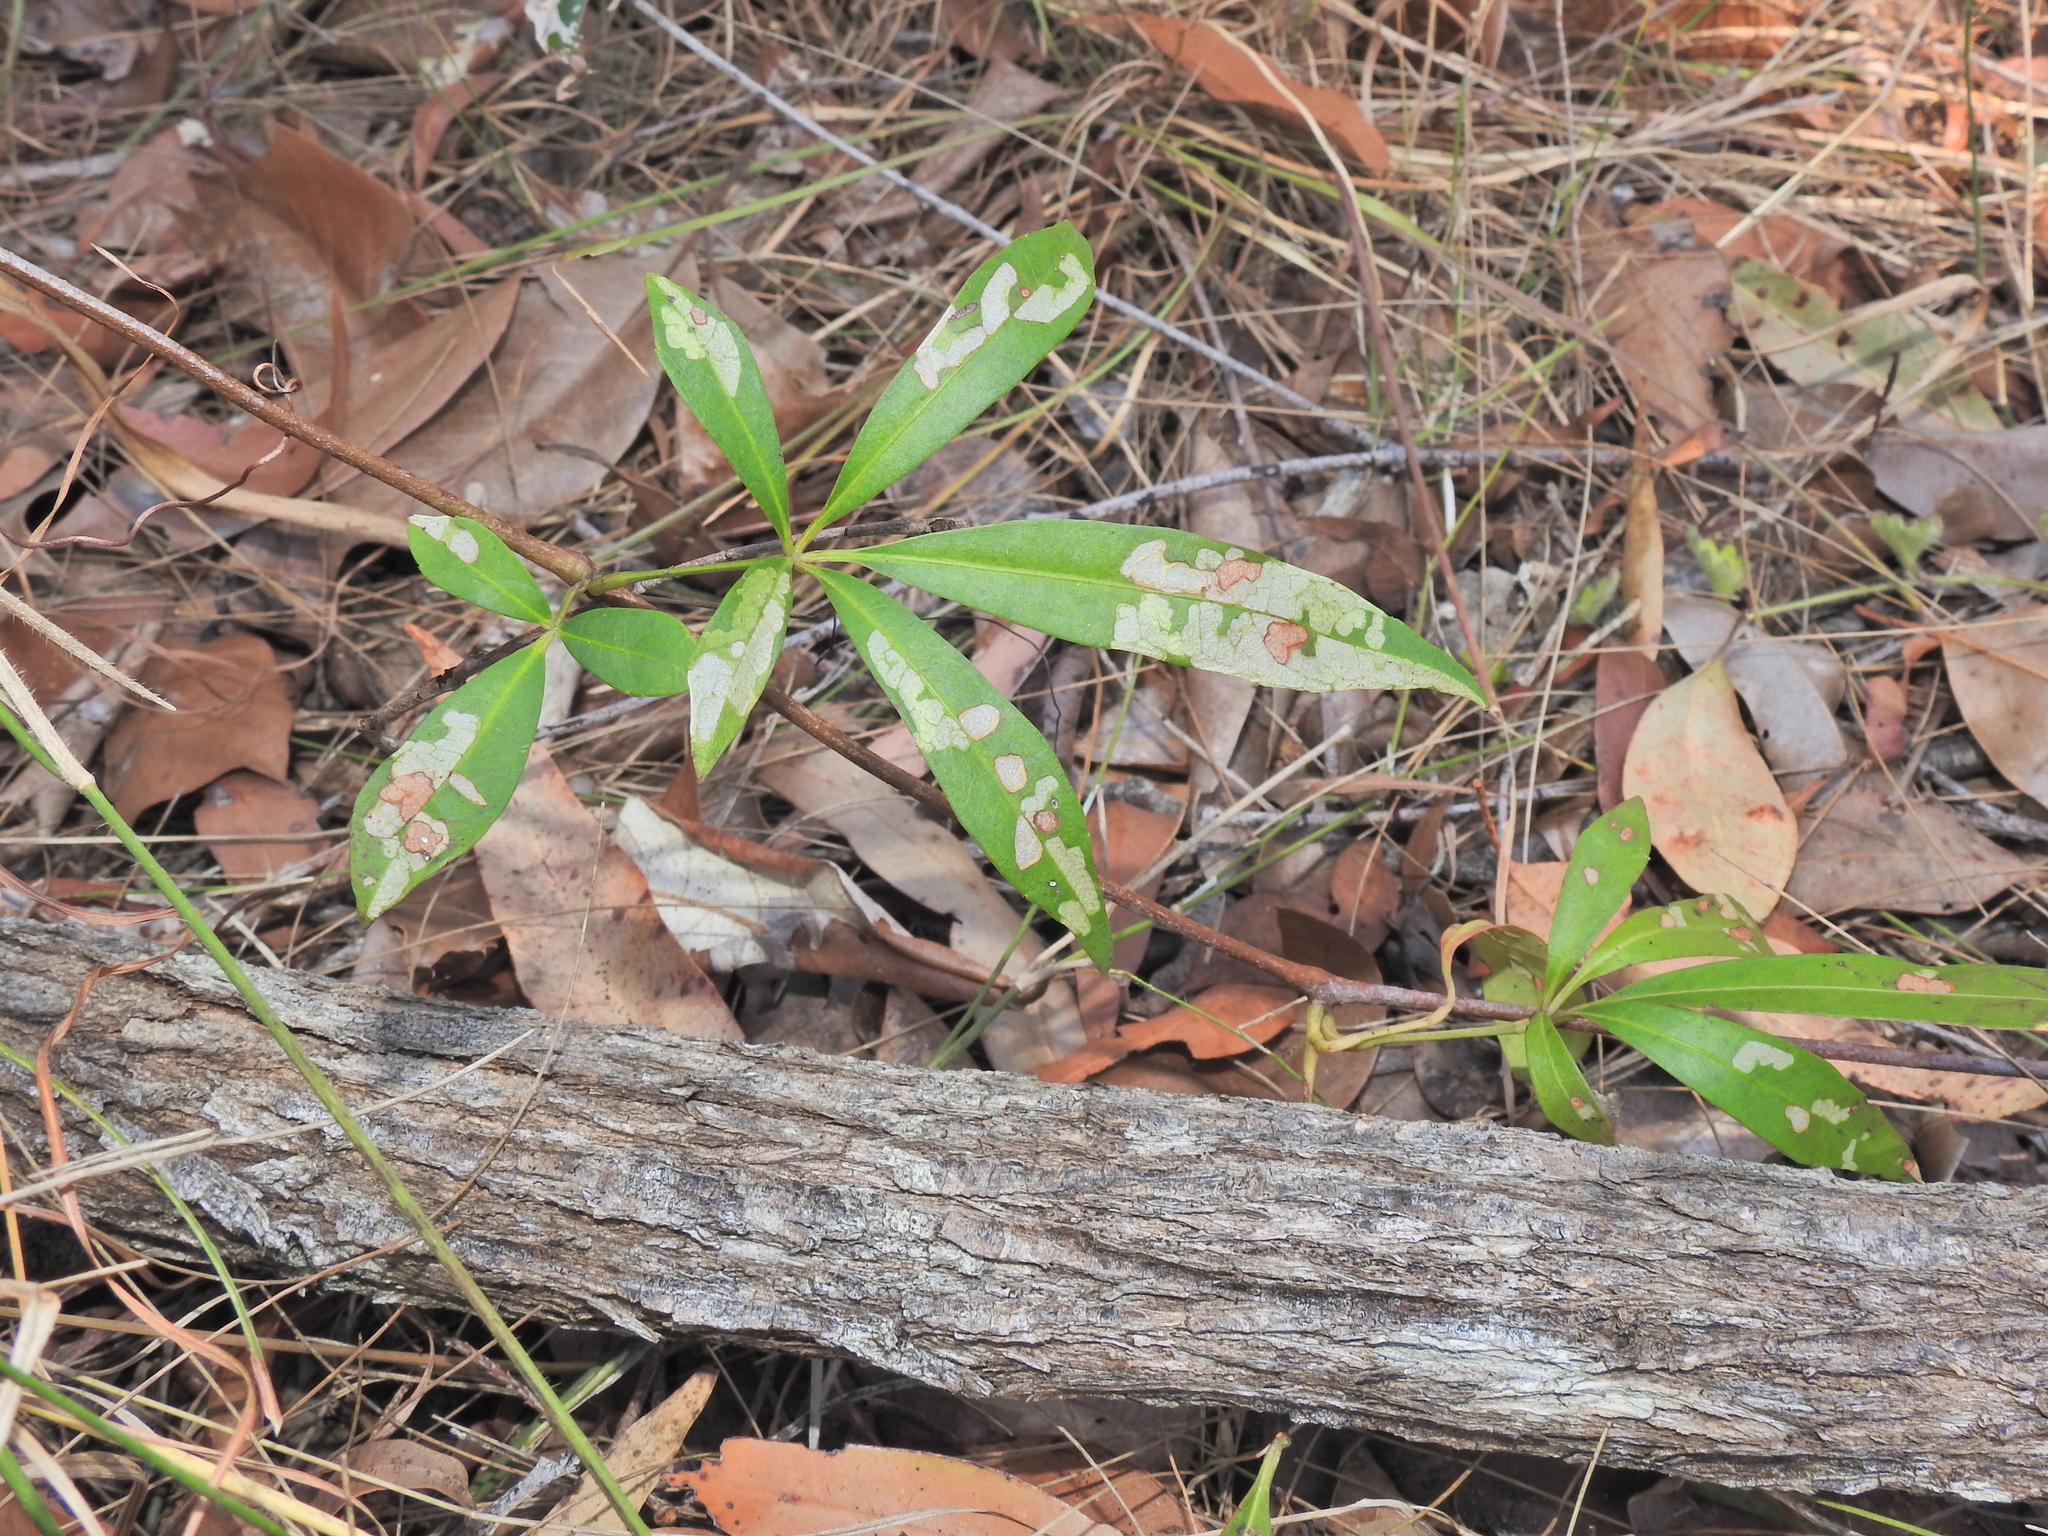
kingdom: Plantae
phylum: Tracheophyta
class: Magnoliopsida
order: Vitales
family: Vitaceae
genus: Clematicissus
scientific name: Clematicissus opaca
